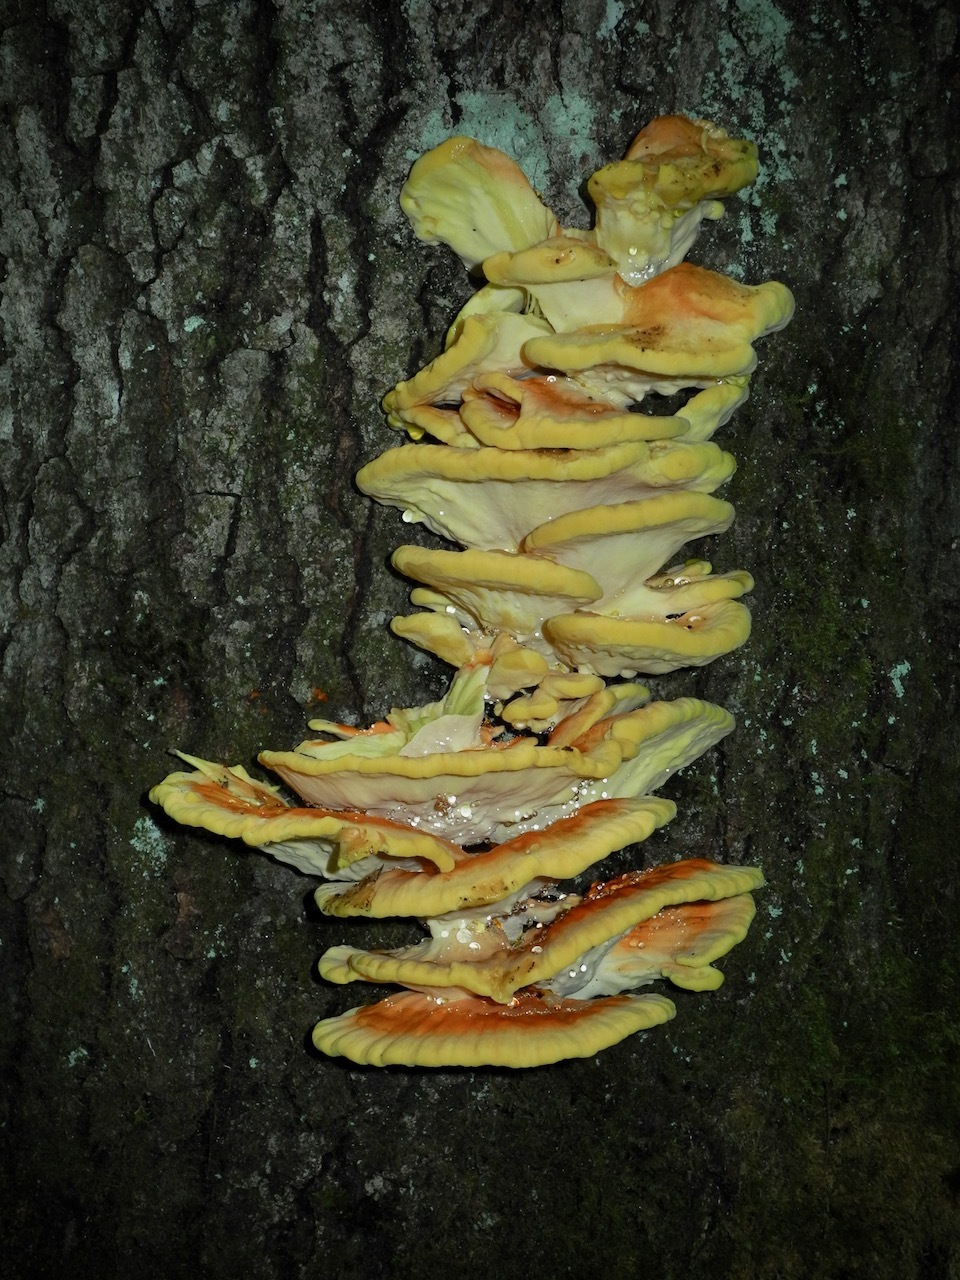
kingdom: Fungi
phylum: Basidiomycota
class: Agaricomycetes
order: Polyporales
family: Laetiporaceae
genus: Laetiporus
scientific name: Laetiporus sulphureus
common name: Chicken of the woods
